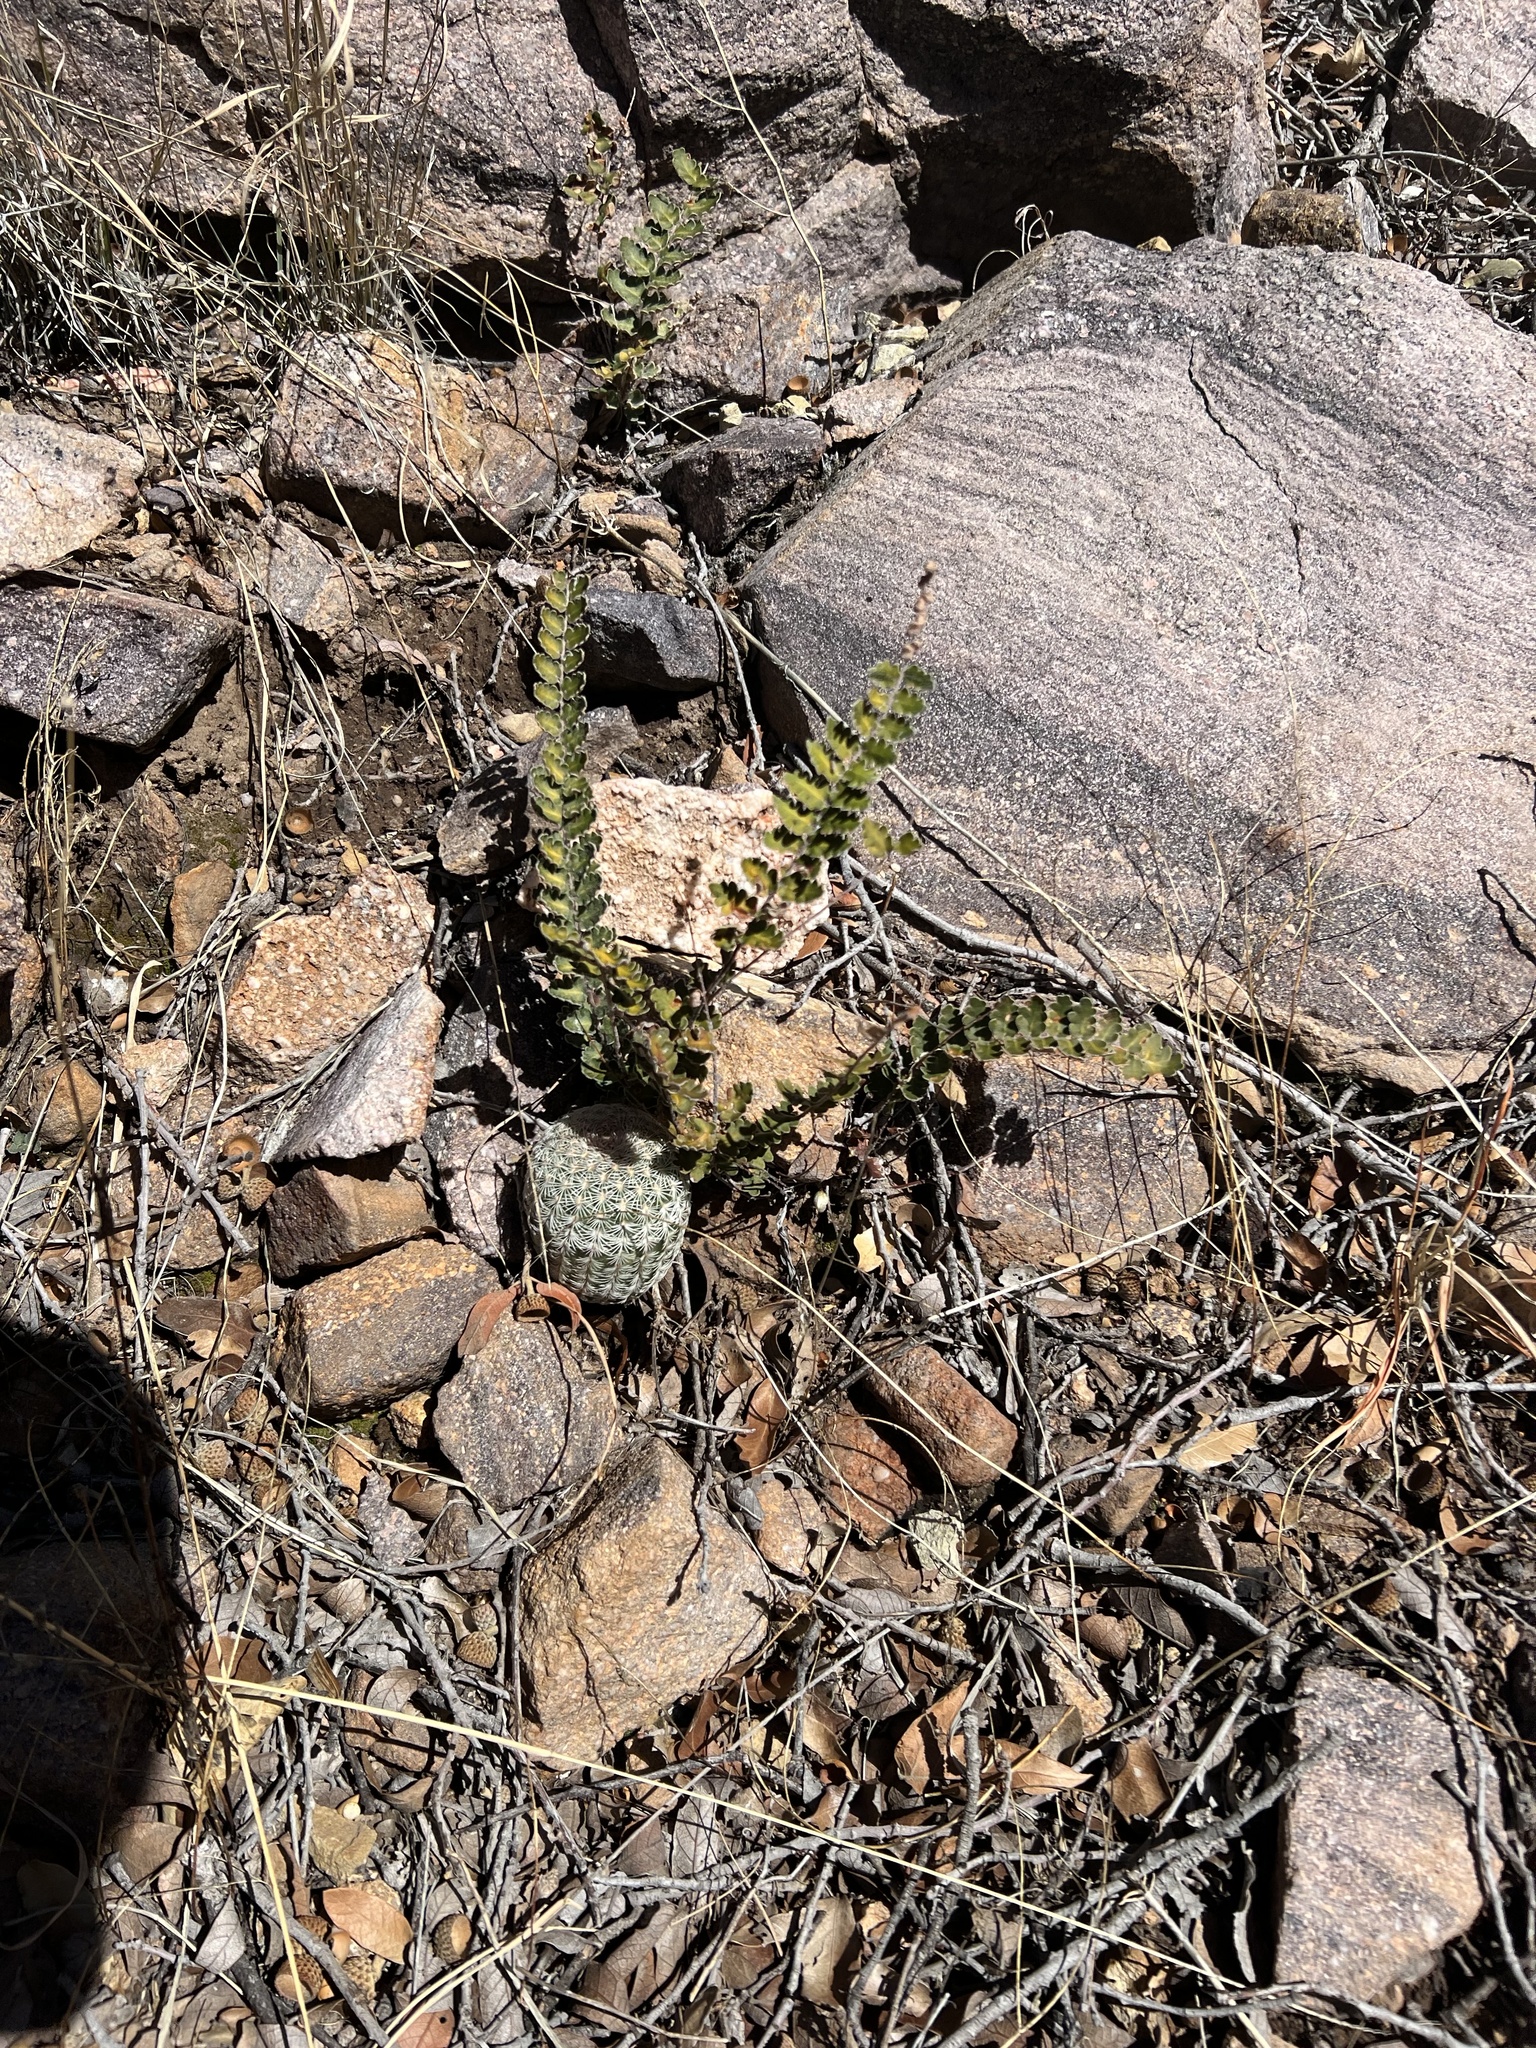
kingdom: Plantae
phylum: Tracheophyta
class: Polypodiopsida
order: Polypodiales
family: Pteridaceae
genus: Astrolepis
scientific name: Astrolepis sinuata
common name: Wavy scaly cloakfern
